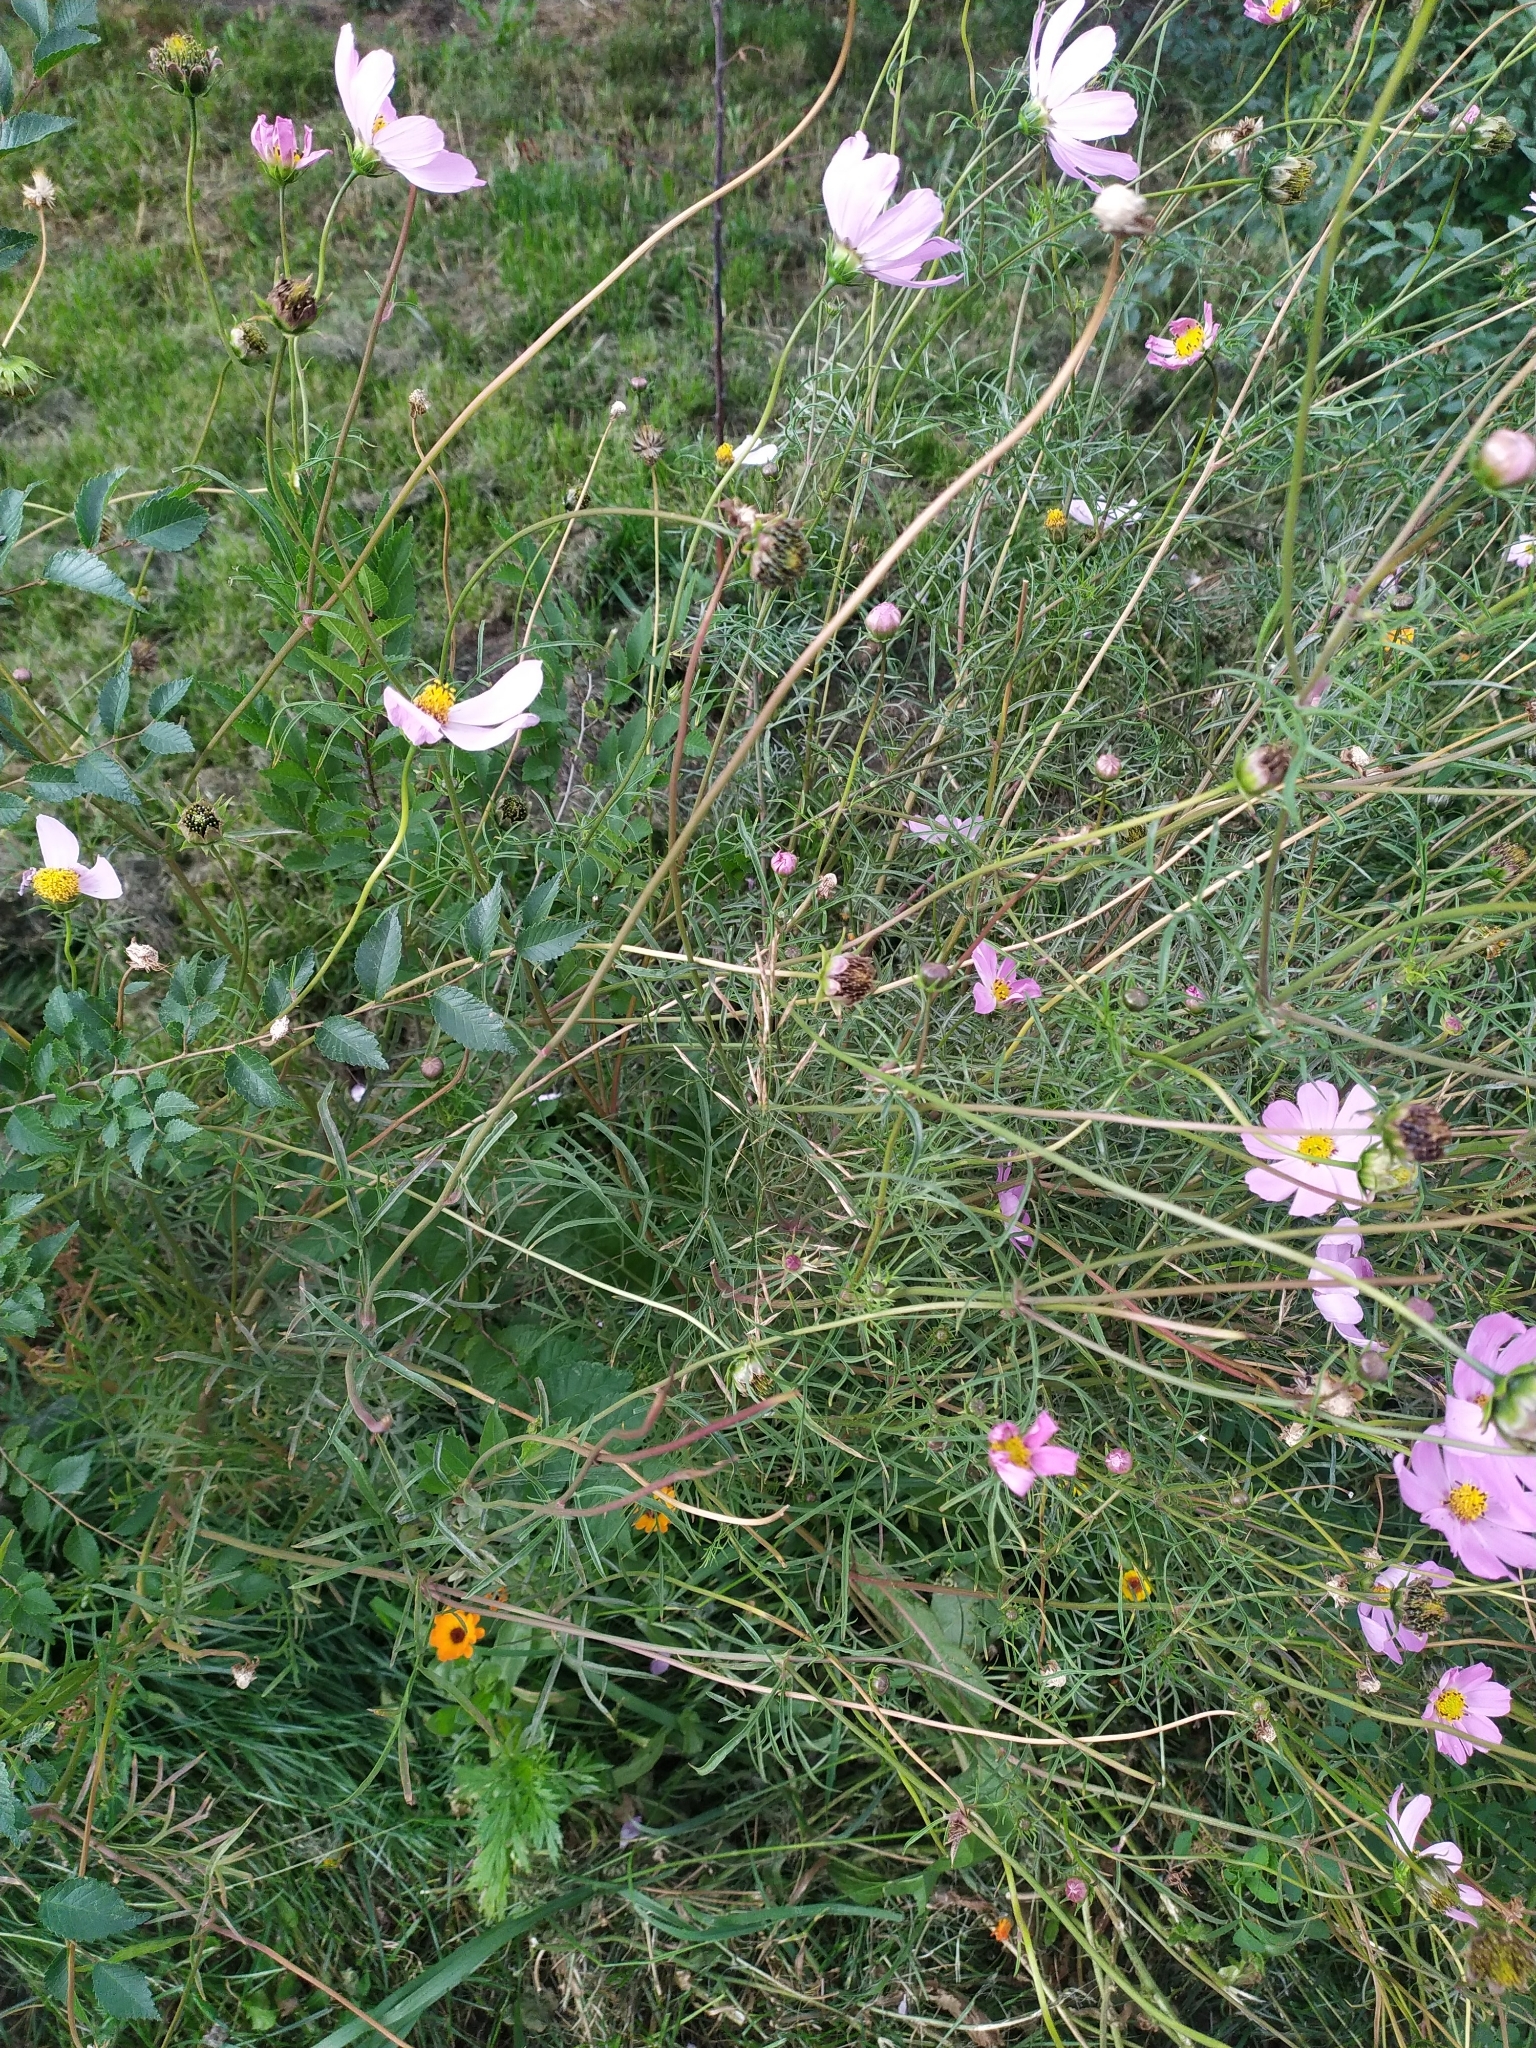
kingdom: Plantae
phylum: Tracheophyta
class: Magnoliopsida
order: Asterales
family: Asteraceae
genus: Cosmos
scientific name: Cosmos bipinnatus
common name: Garden cosmos
